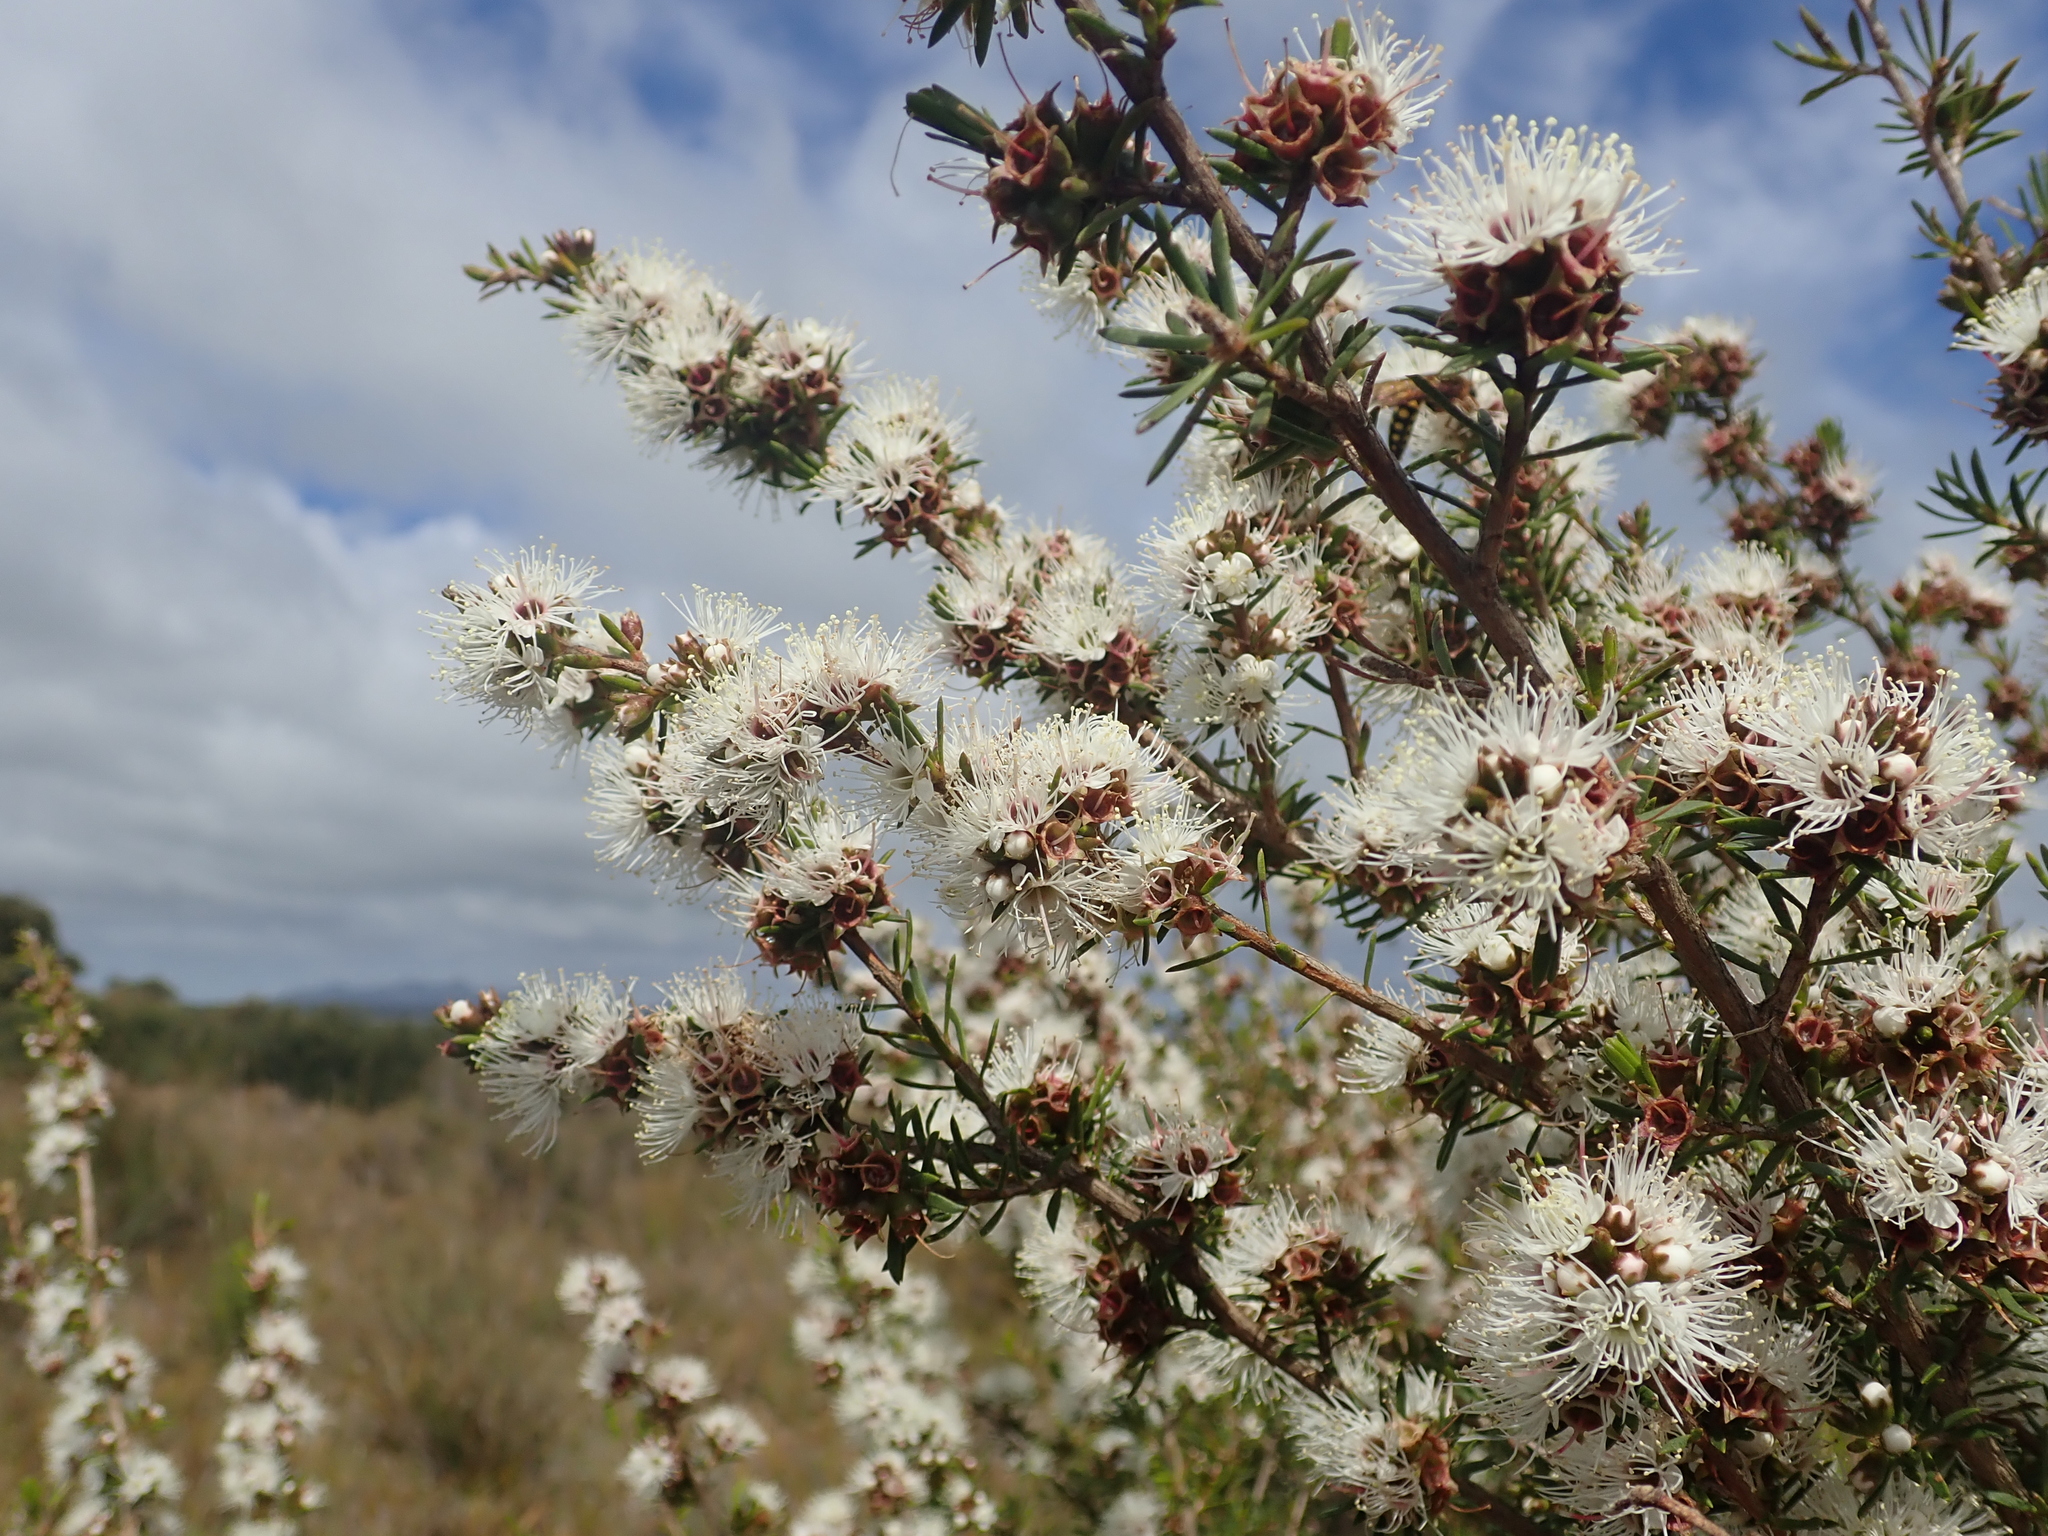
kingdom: Plantae
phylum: Tracheophyta
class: Magnoliopsida
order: Myrtales
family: Myrtaceae
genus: Kunzea
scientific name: Kunzea ambigua
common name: Tickbush
